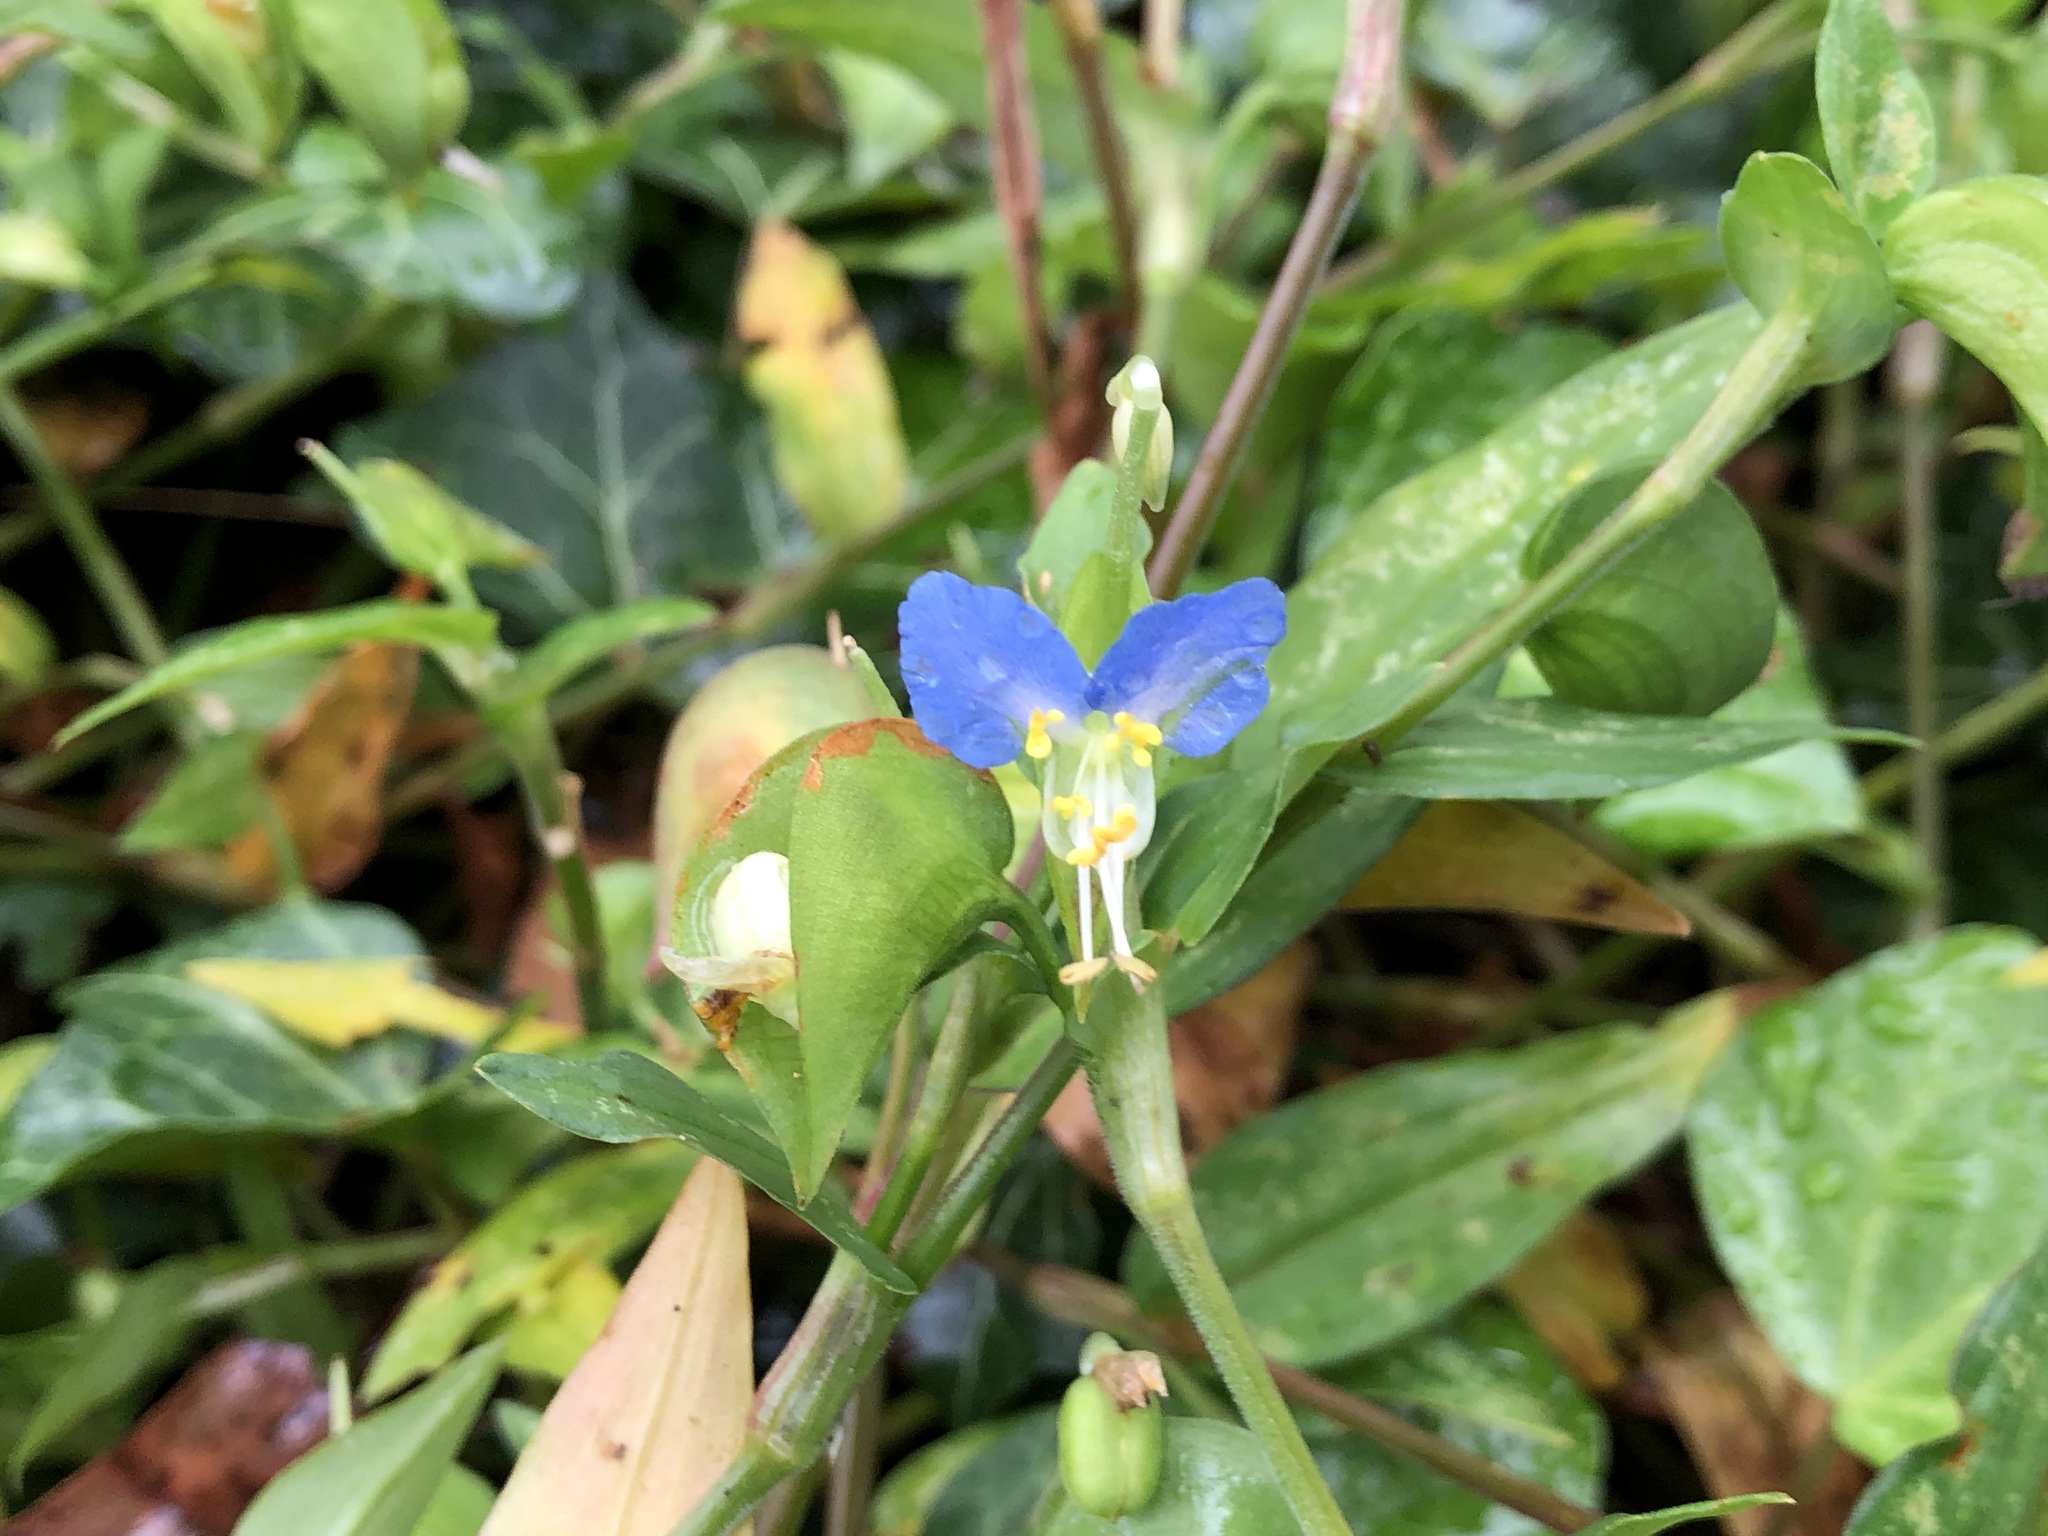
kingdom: Plantae
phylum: Tracheophyta
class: Liliopsida
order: Commelinales
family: Commelinaceae
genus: Commelina
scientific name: Commelina communis
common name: Asiatic dayflower
